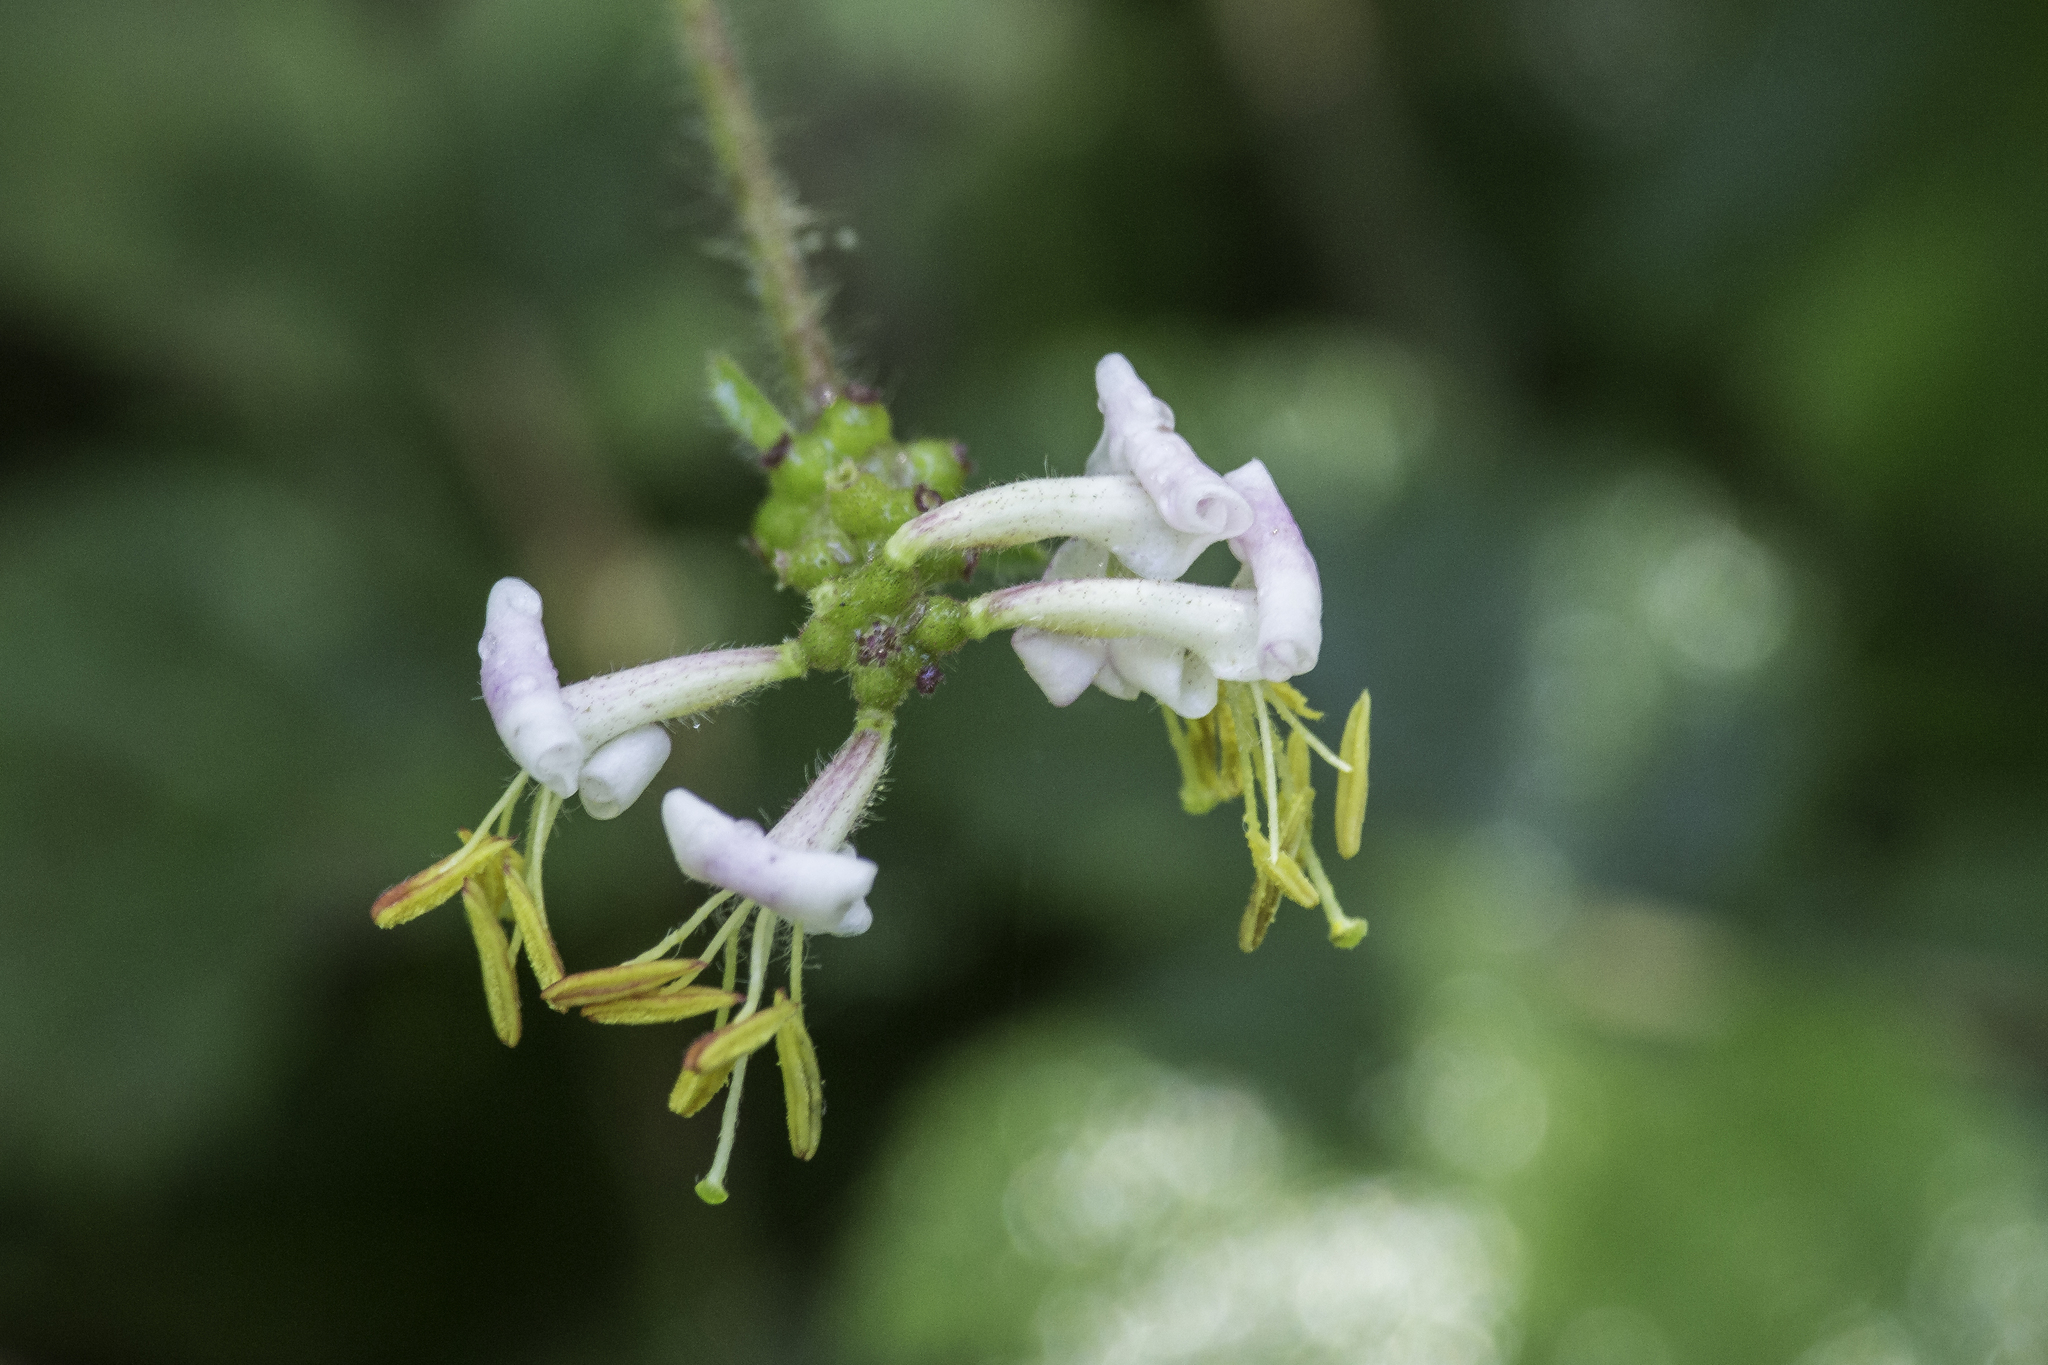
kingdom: Plantae
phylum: Tracheophyta
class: Magnoliopsida
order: Dipsacales
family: Caprifoliaceae
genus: Lonicera
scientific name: Lonicera hispidula
